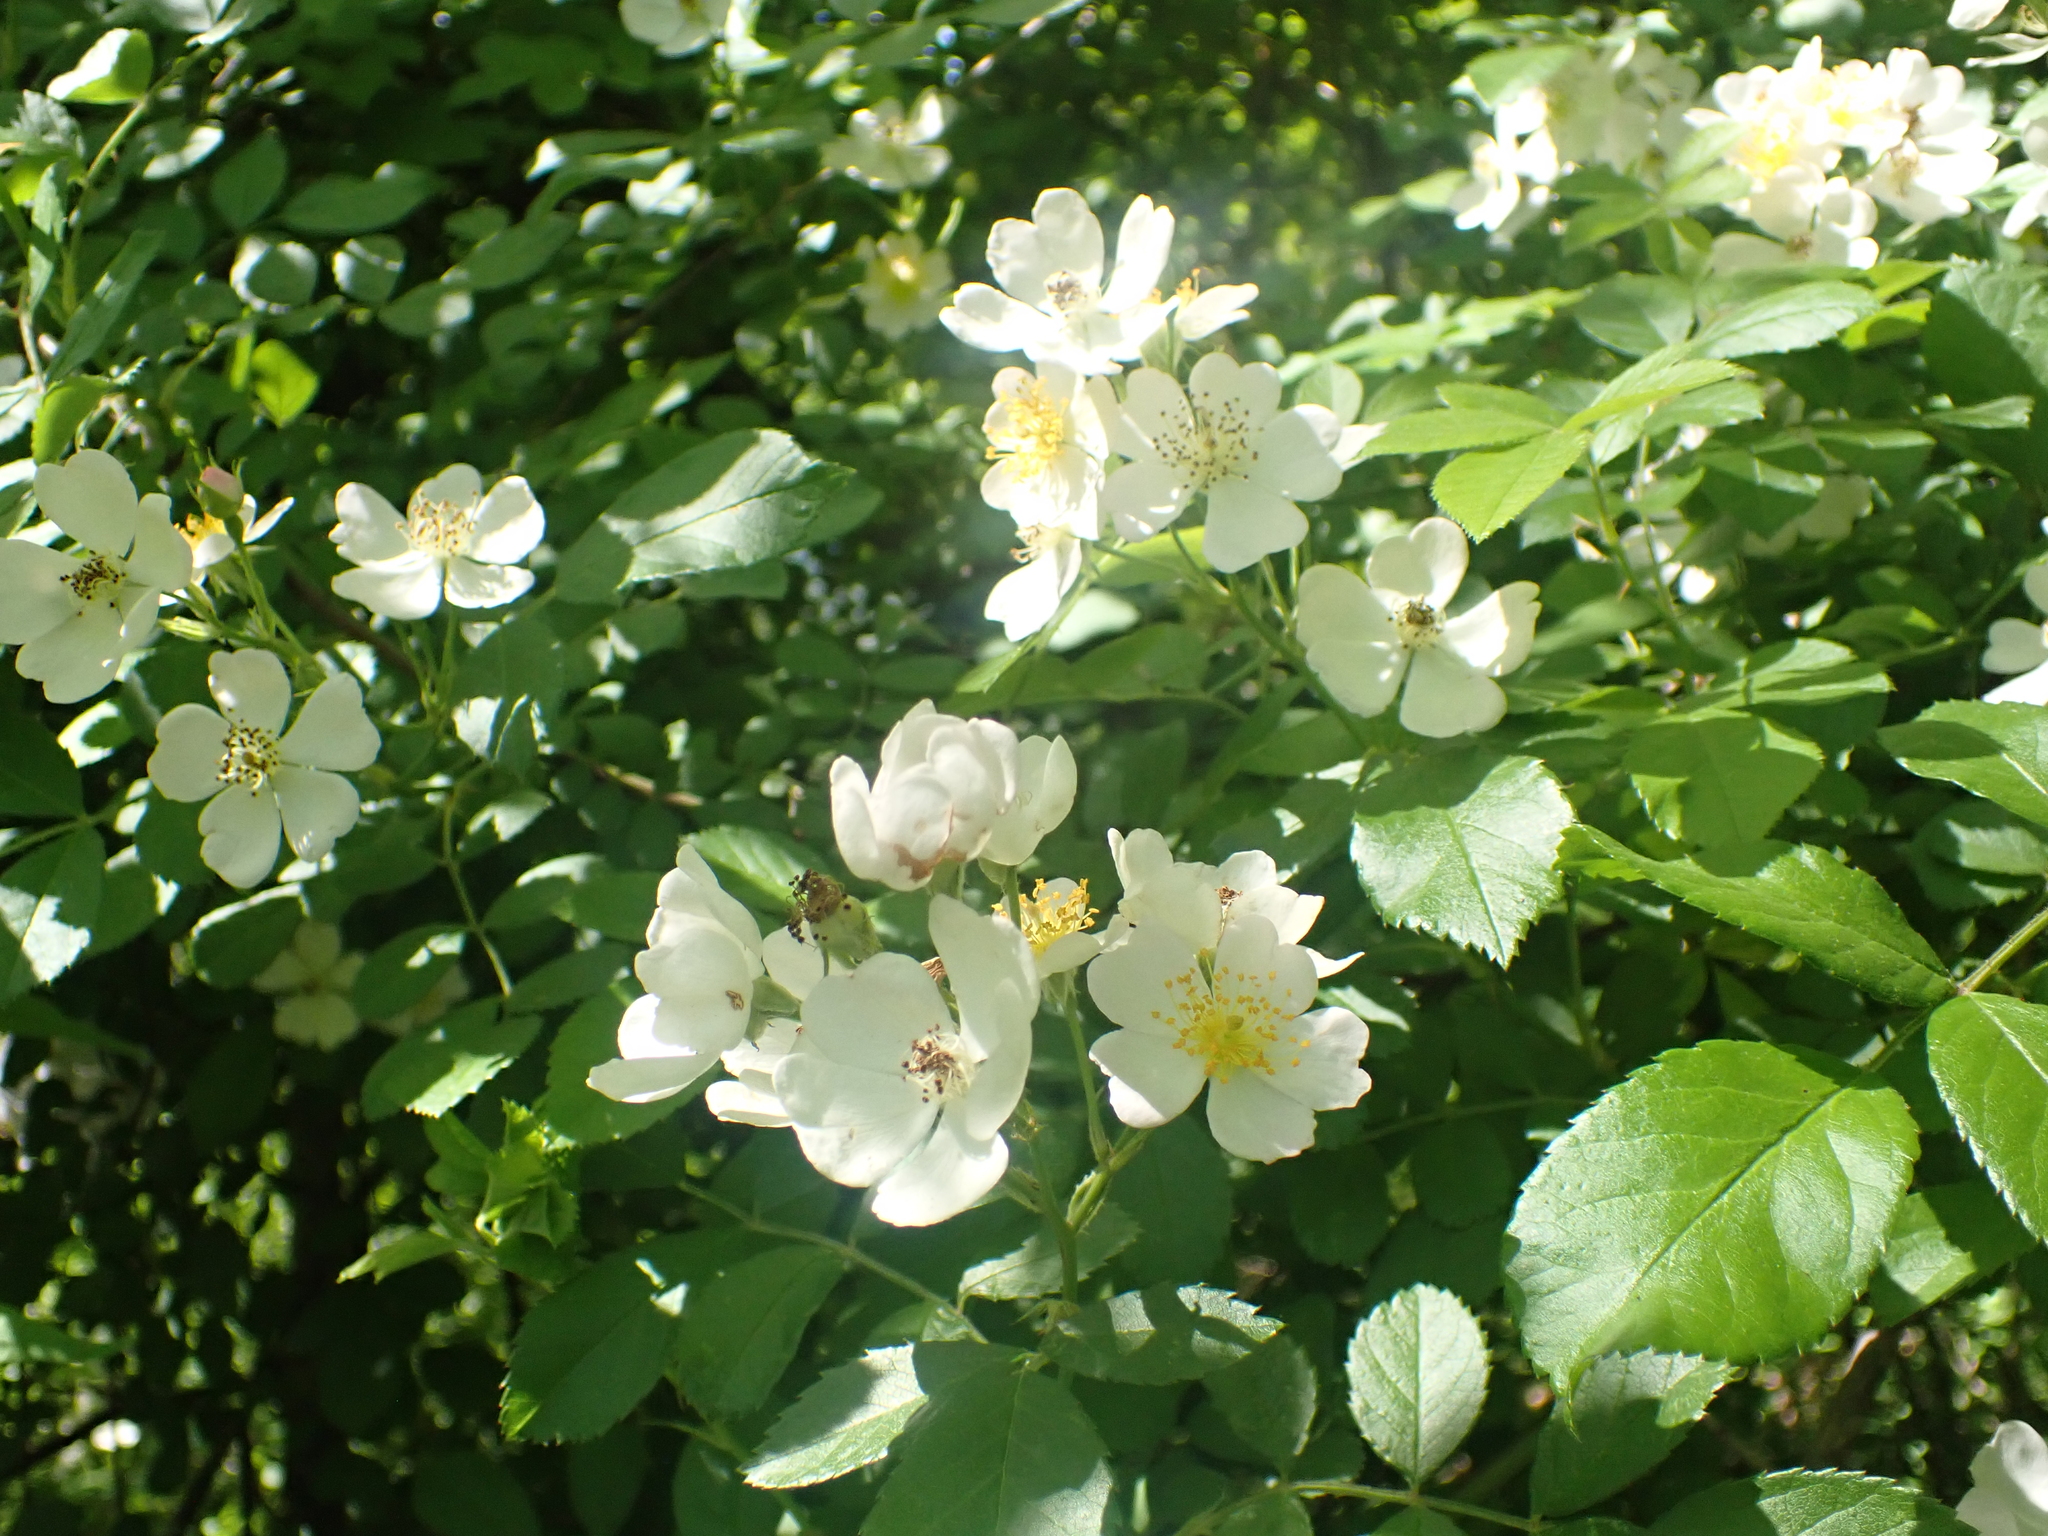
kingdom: Plantae
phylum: Tracheophyta
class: Magnoliopsida
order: Rosales
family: Rosaceae
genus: Rosa
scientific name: Rosa multiflora
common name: Multiflora rose
